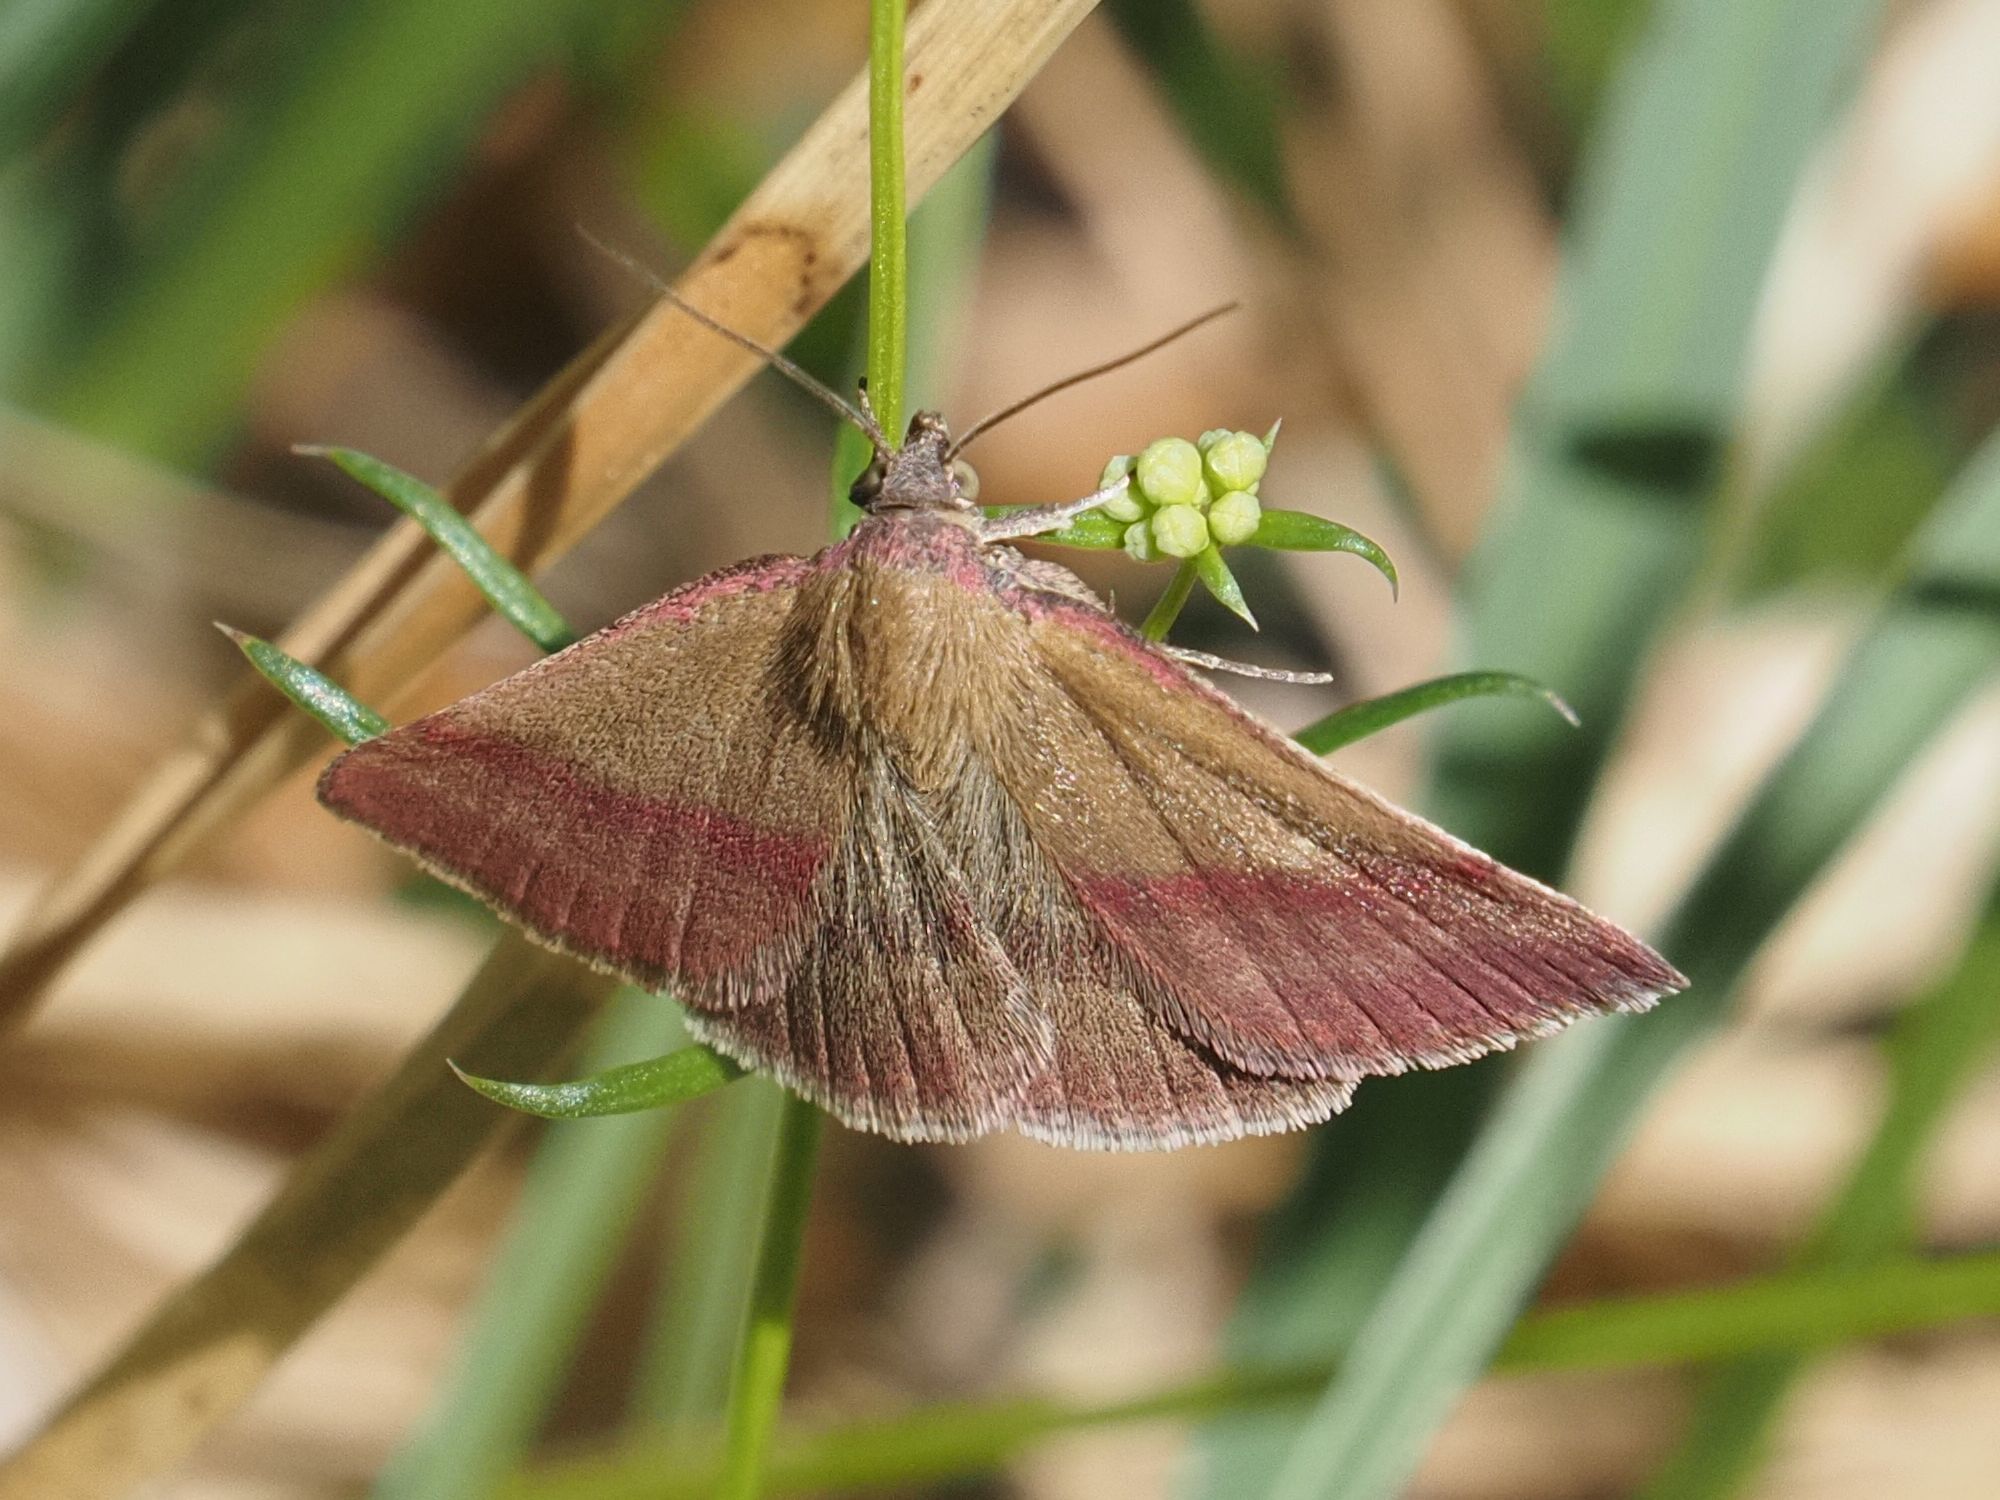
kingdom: Animalia
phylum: Arthropoda
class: Insecta
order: Lepidoptera
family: Erebidae
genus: Phytometra
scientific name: Phytometra viridaria
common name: Small purple-barred
